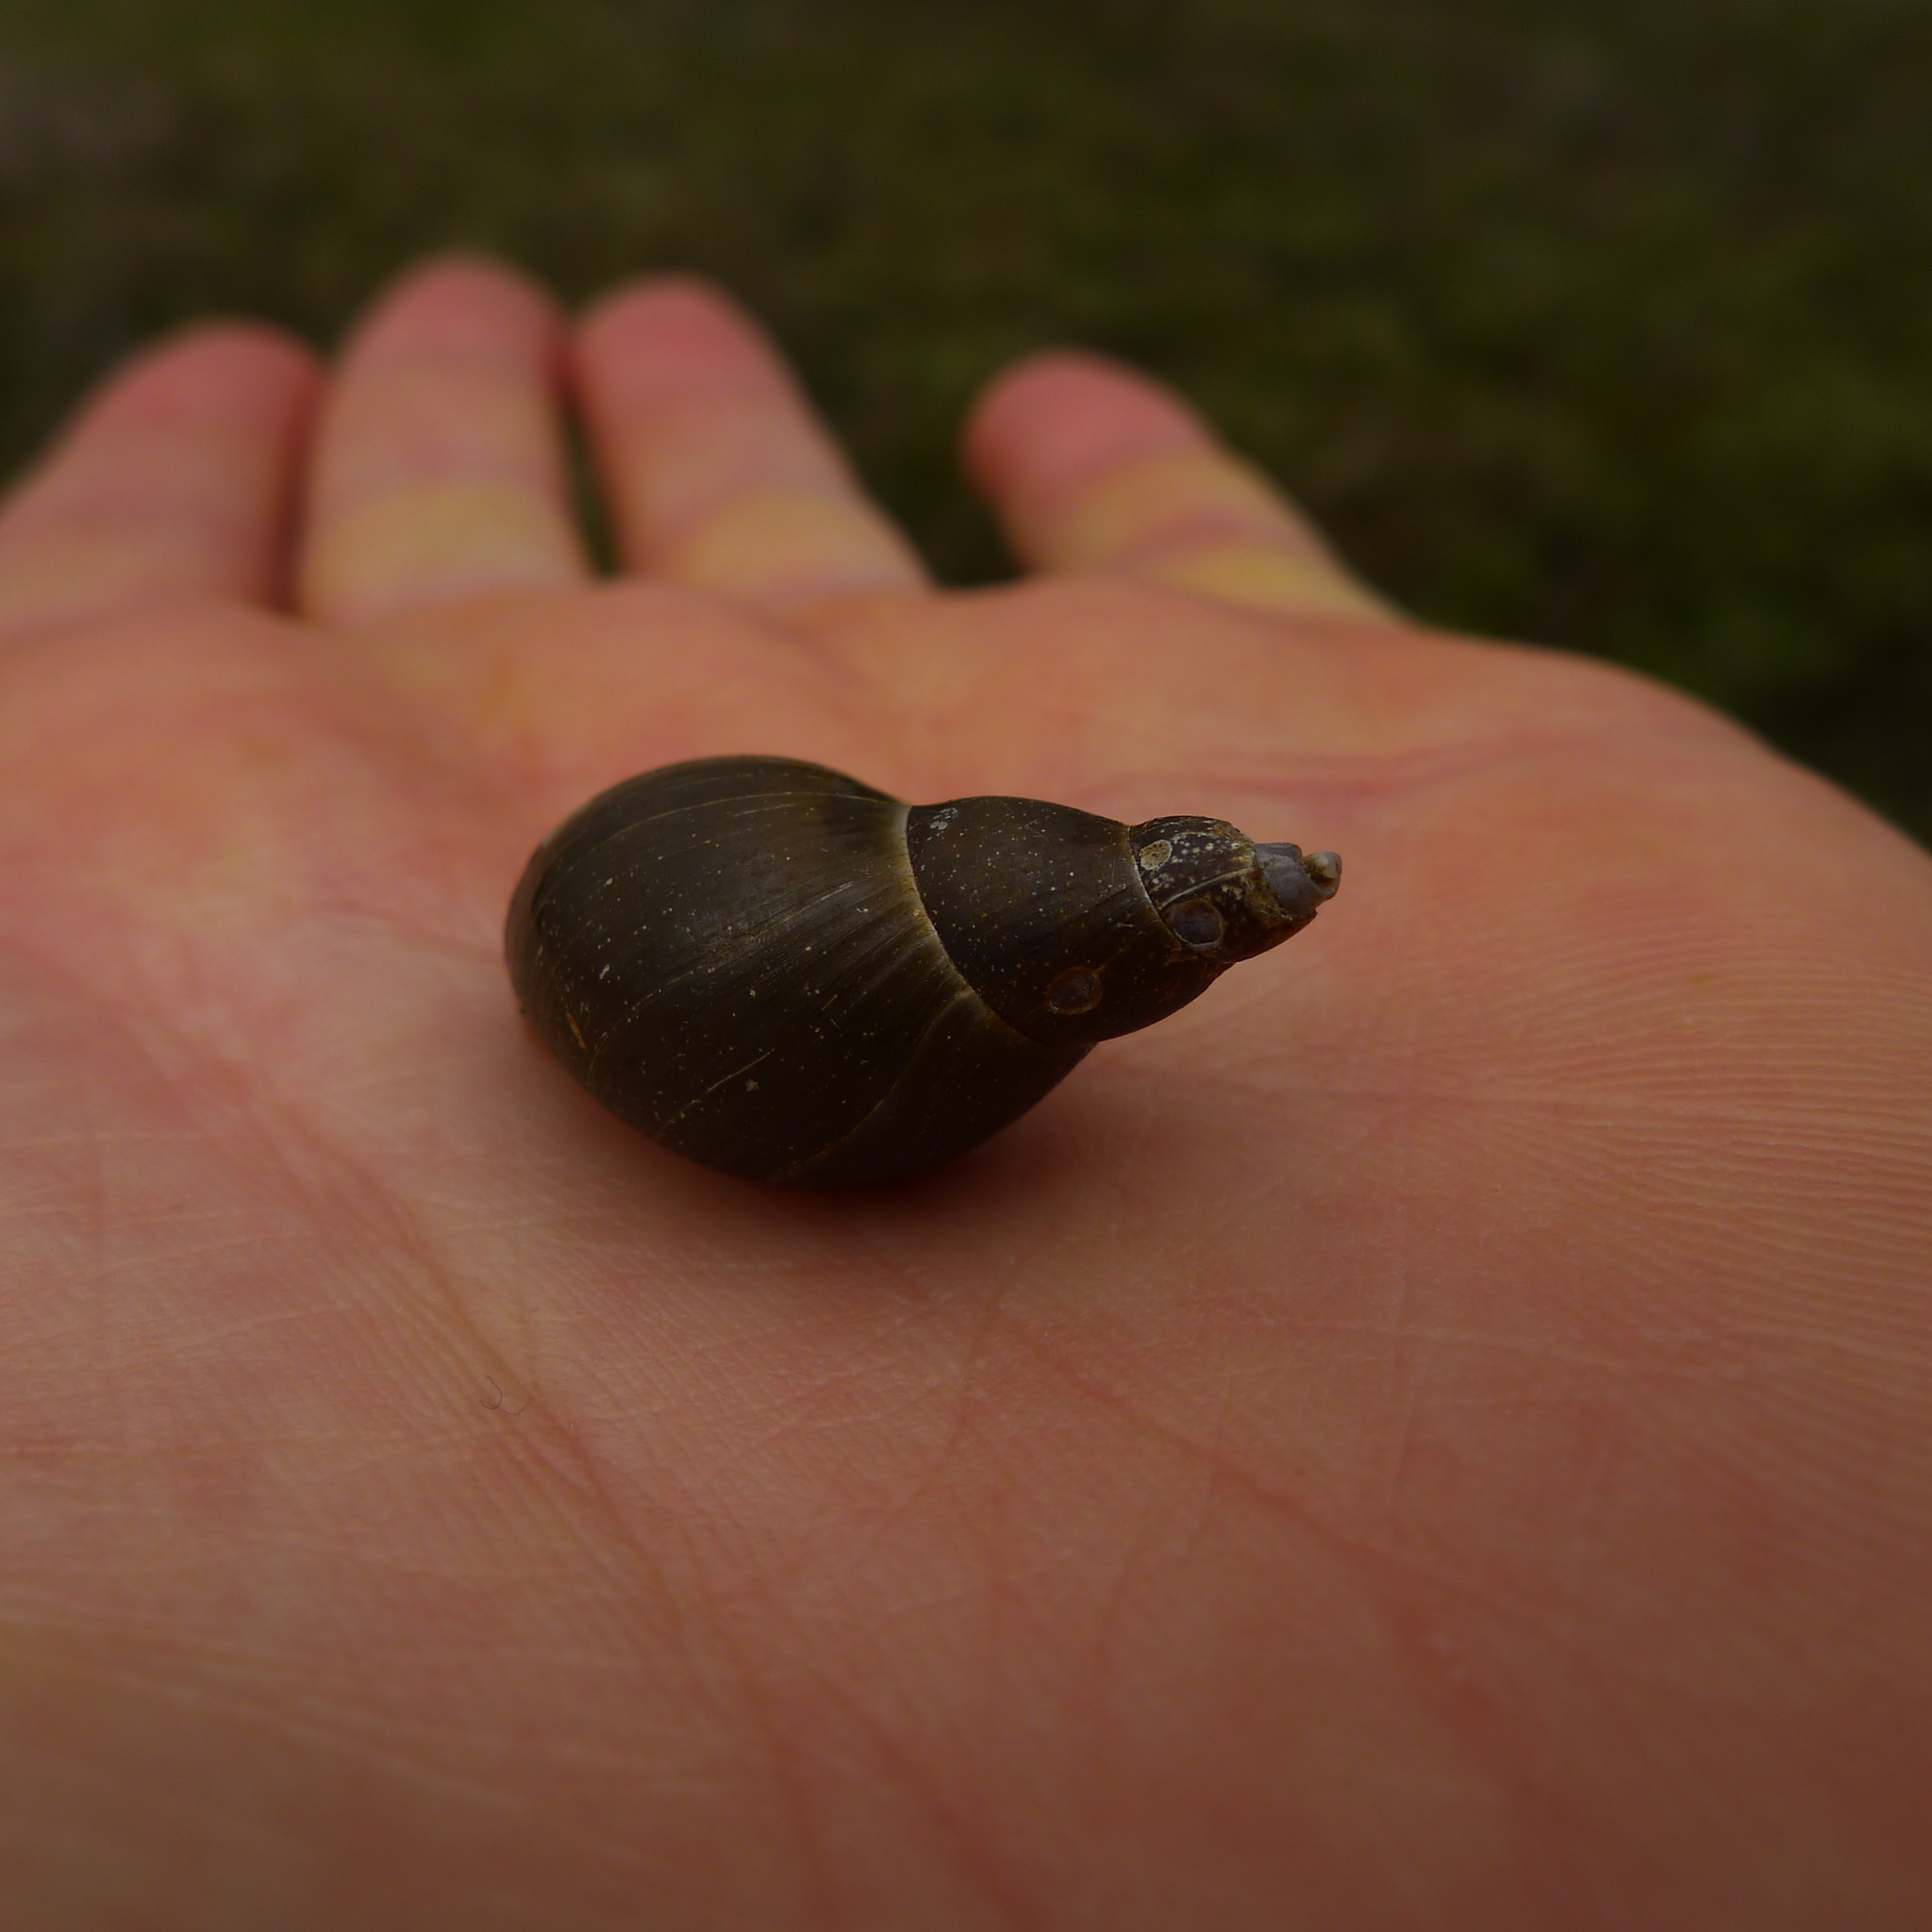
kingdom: Animalia
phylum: Mollusca
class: Gastropoda
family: Lymnaeidae
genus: Lymnaea
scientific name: Lymnaea stagnalis
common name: Great pond snail
